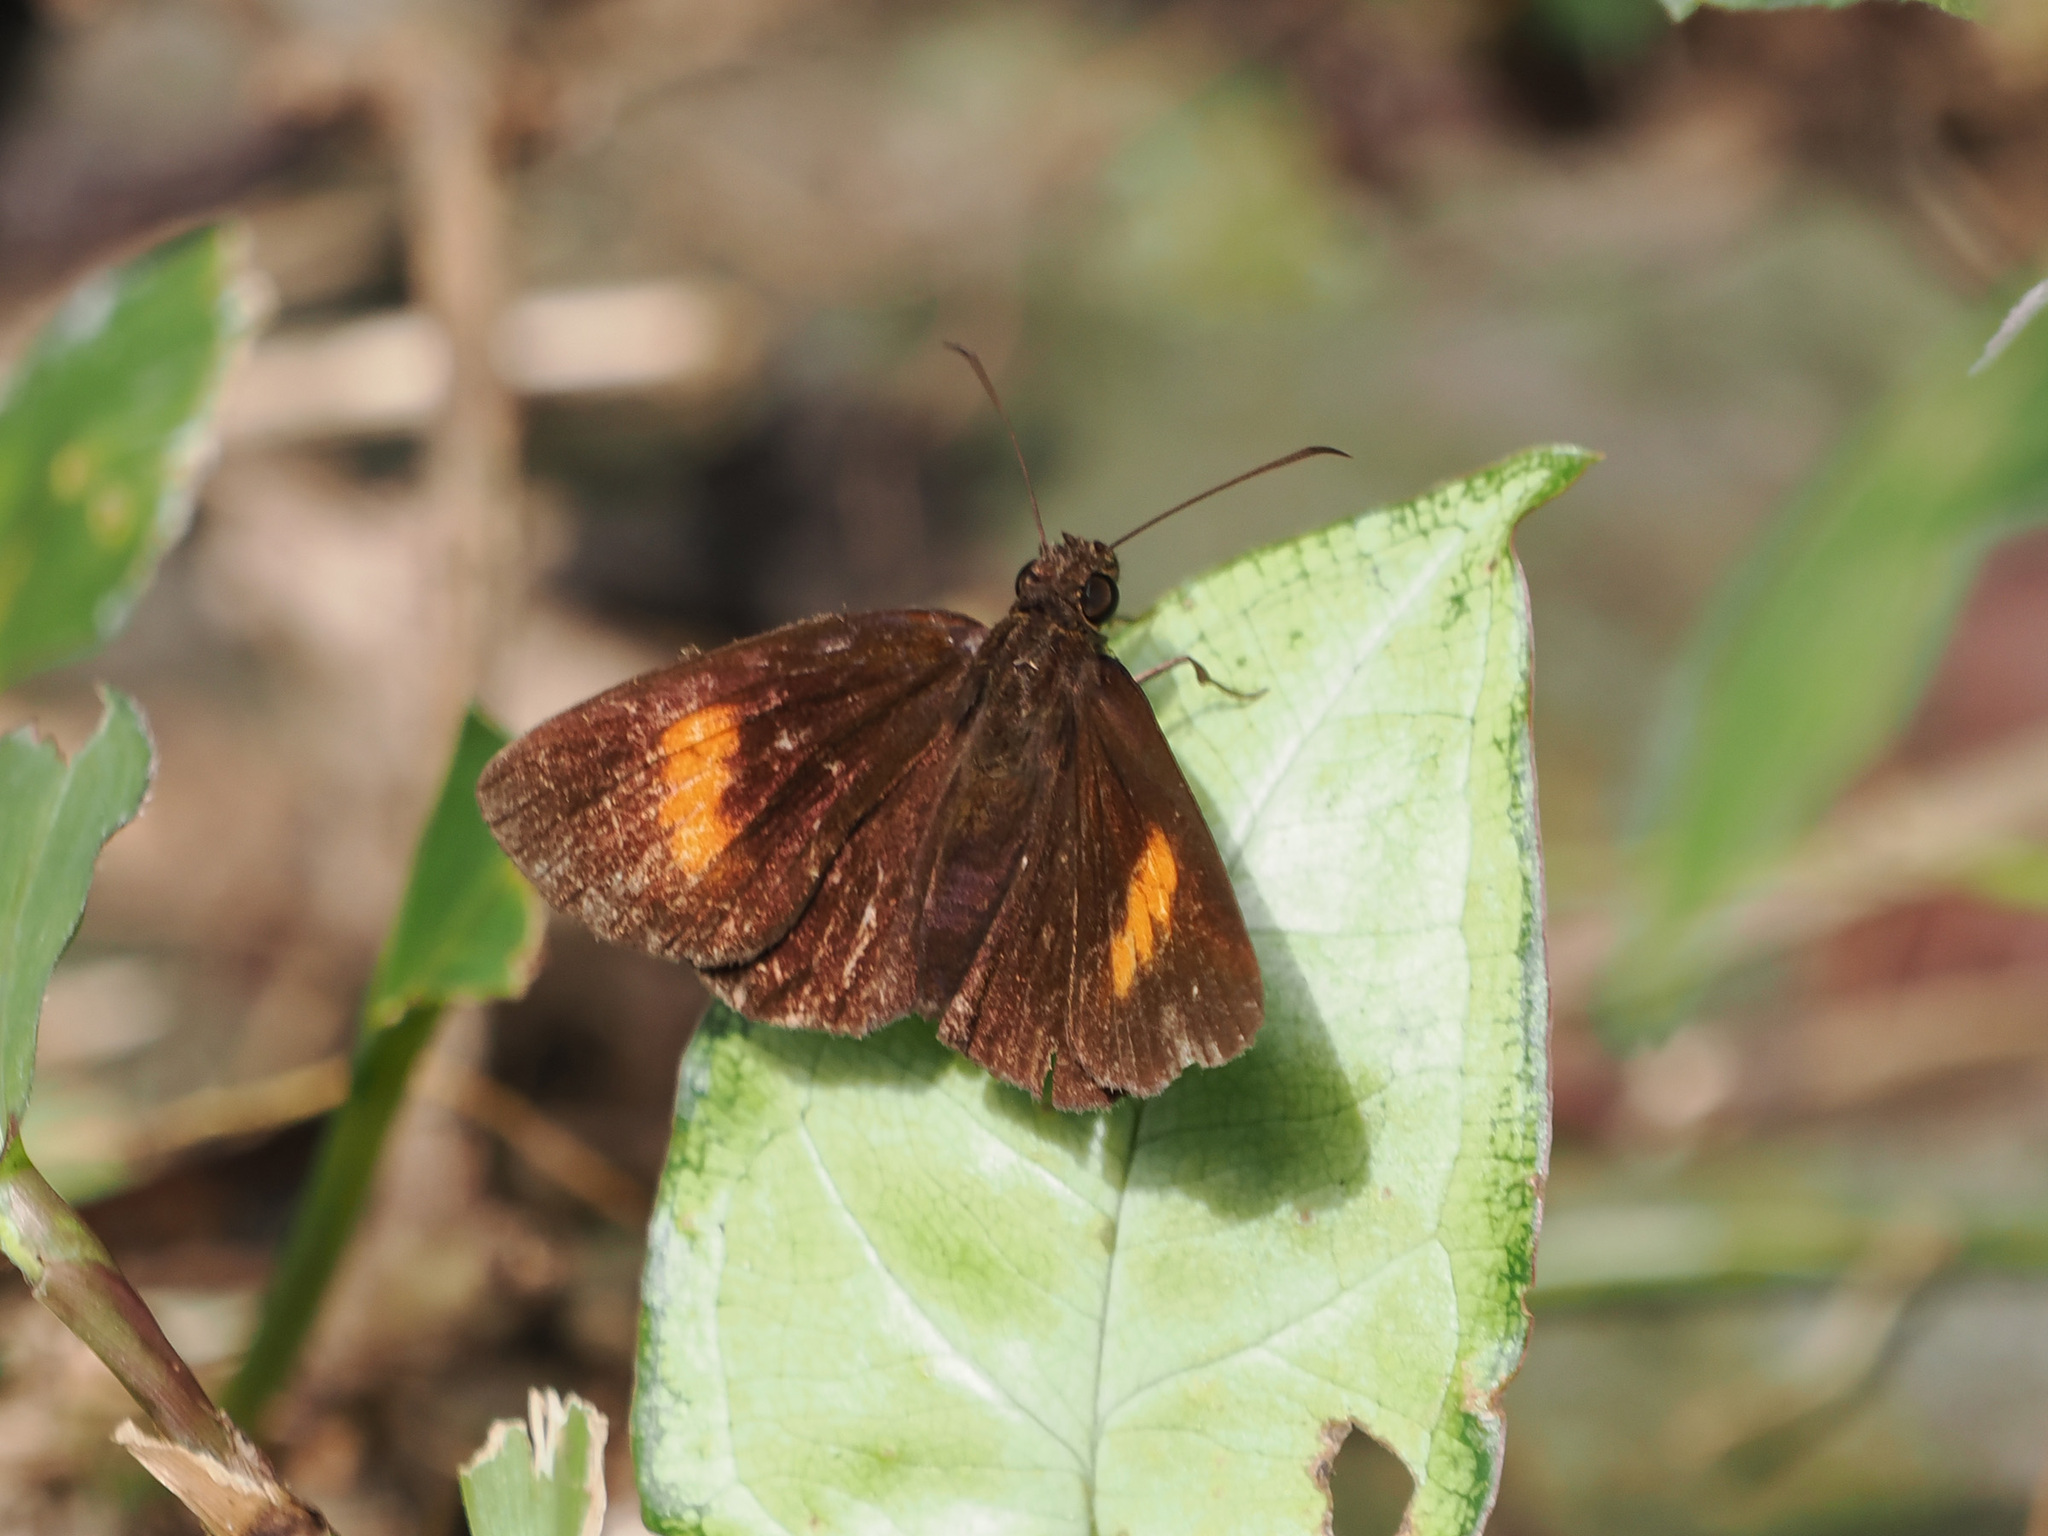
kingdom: Animalia
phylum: Arthropoda
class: Insecta
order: Lepidoptera
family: Hesperiidae
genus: Iambrix
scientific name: Iambrix Idmon obliquans
